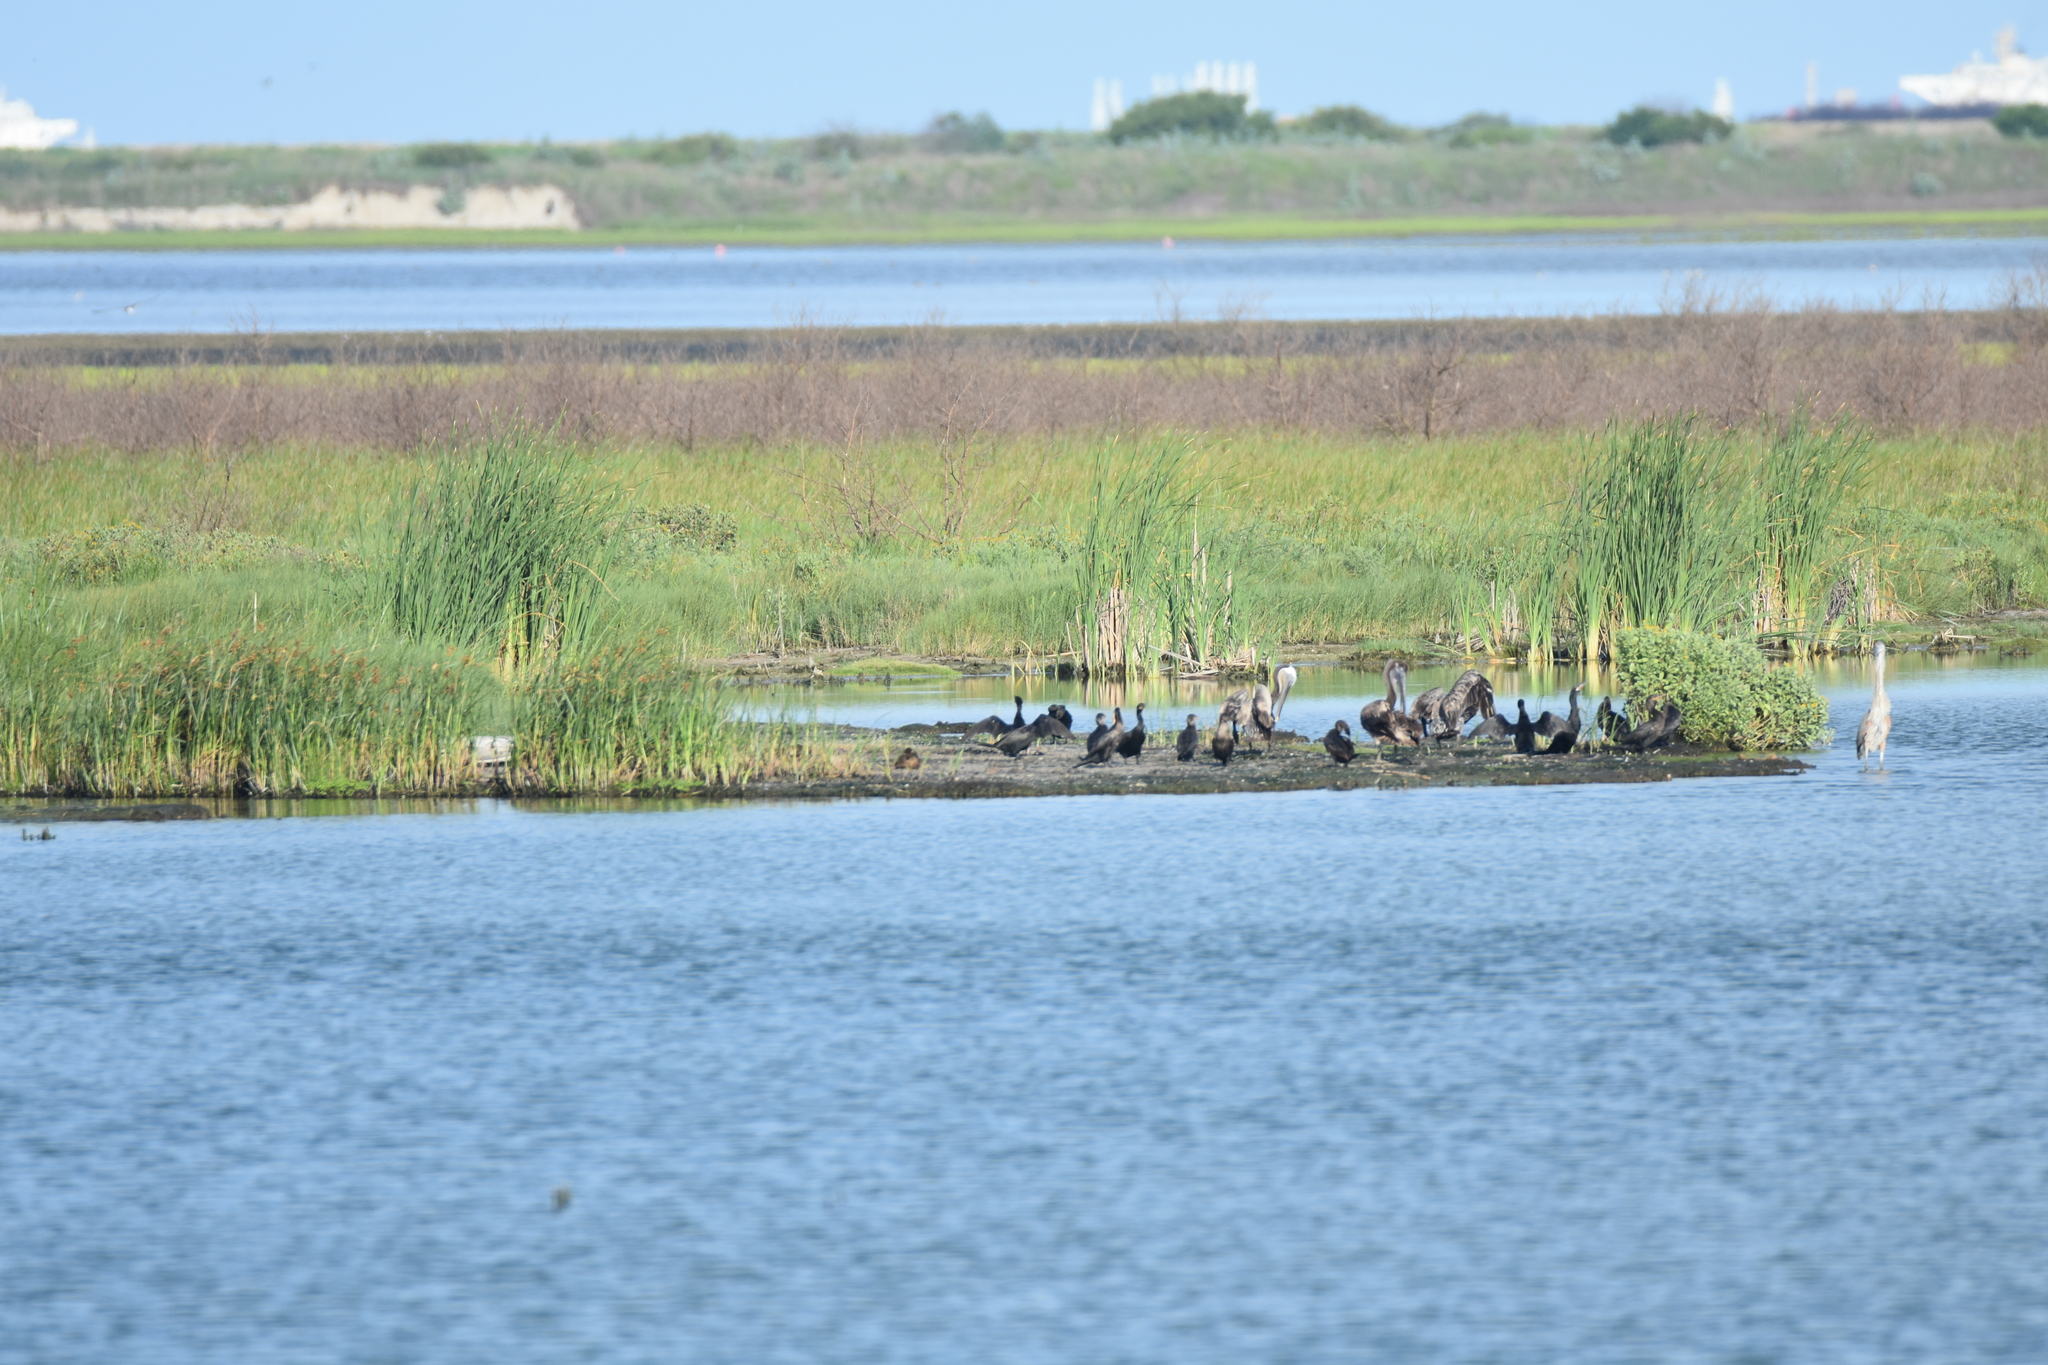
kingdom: Animalia
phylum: Chordata
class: Aves
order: Suliformes
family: Phalacrocoracidae
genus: Phalacrocorax
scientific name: Phalacrocorax brasilianus
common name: Neotropic cormorant
